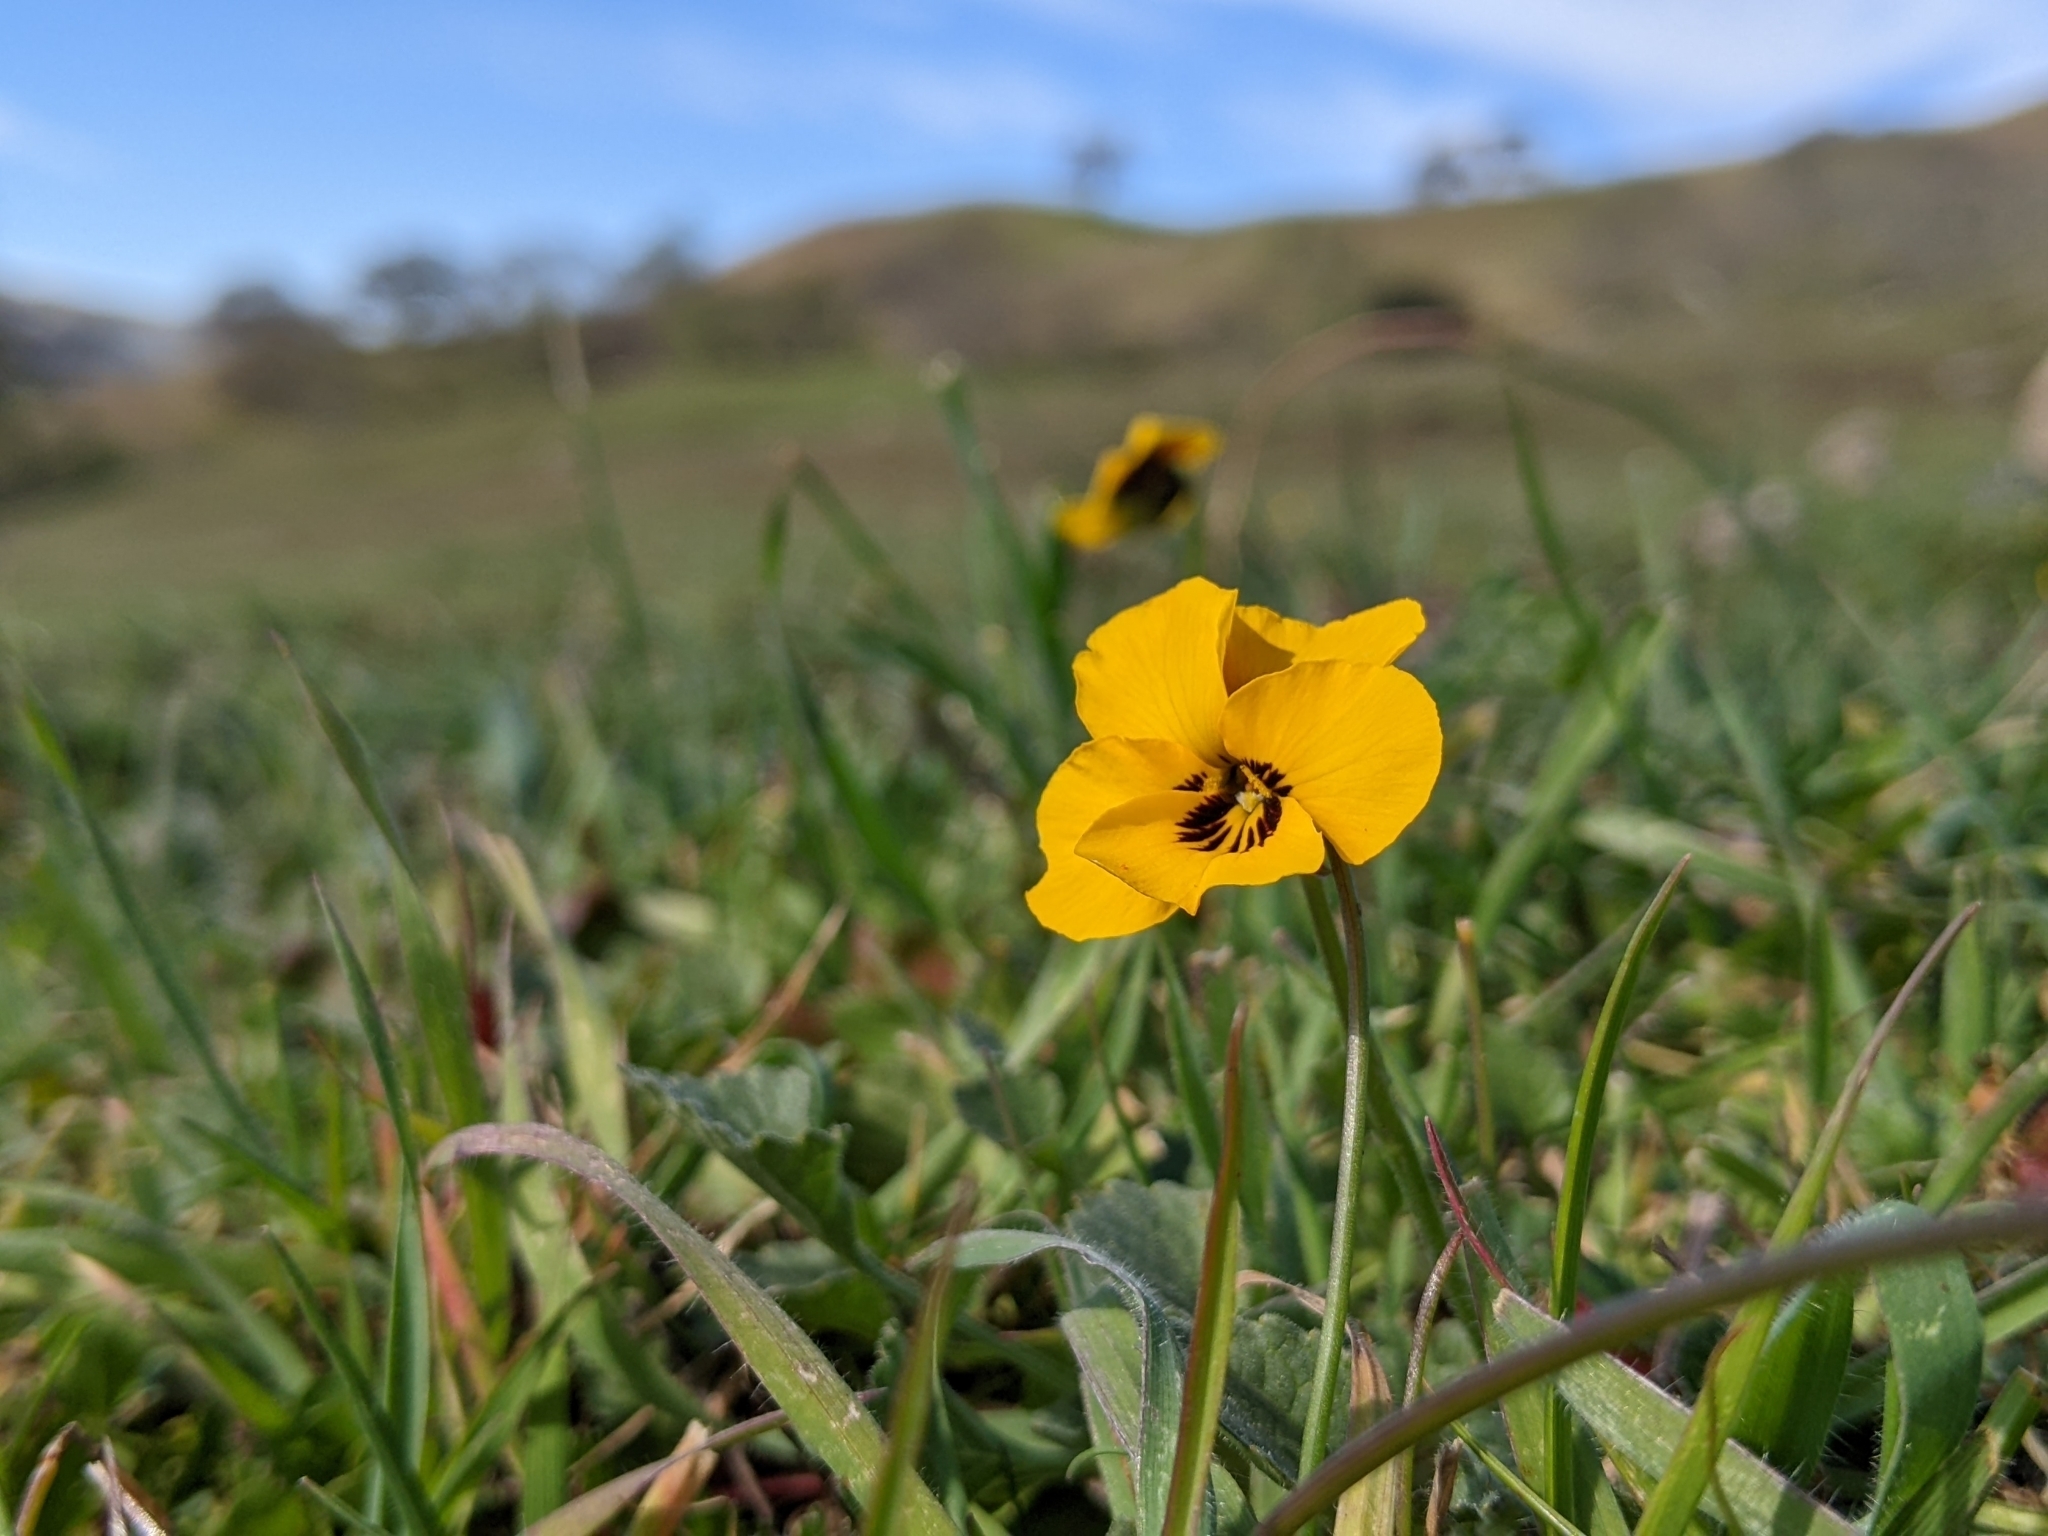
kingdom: Plantae
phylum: Tracheophyta
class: Magnoliopsida
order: Malpighiales
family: Violaceae
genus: Viola
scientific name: Viola pedunculata
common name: California golden violet
